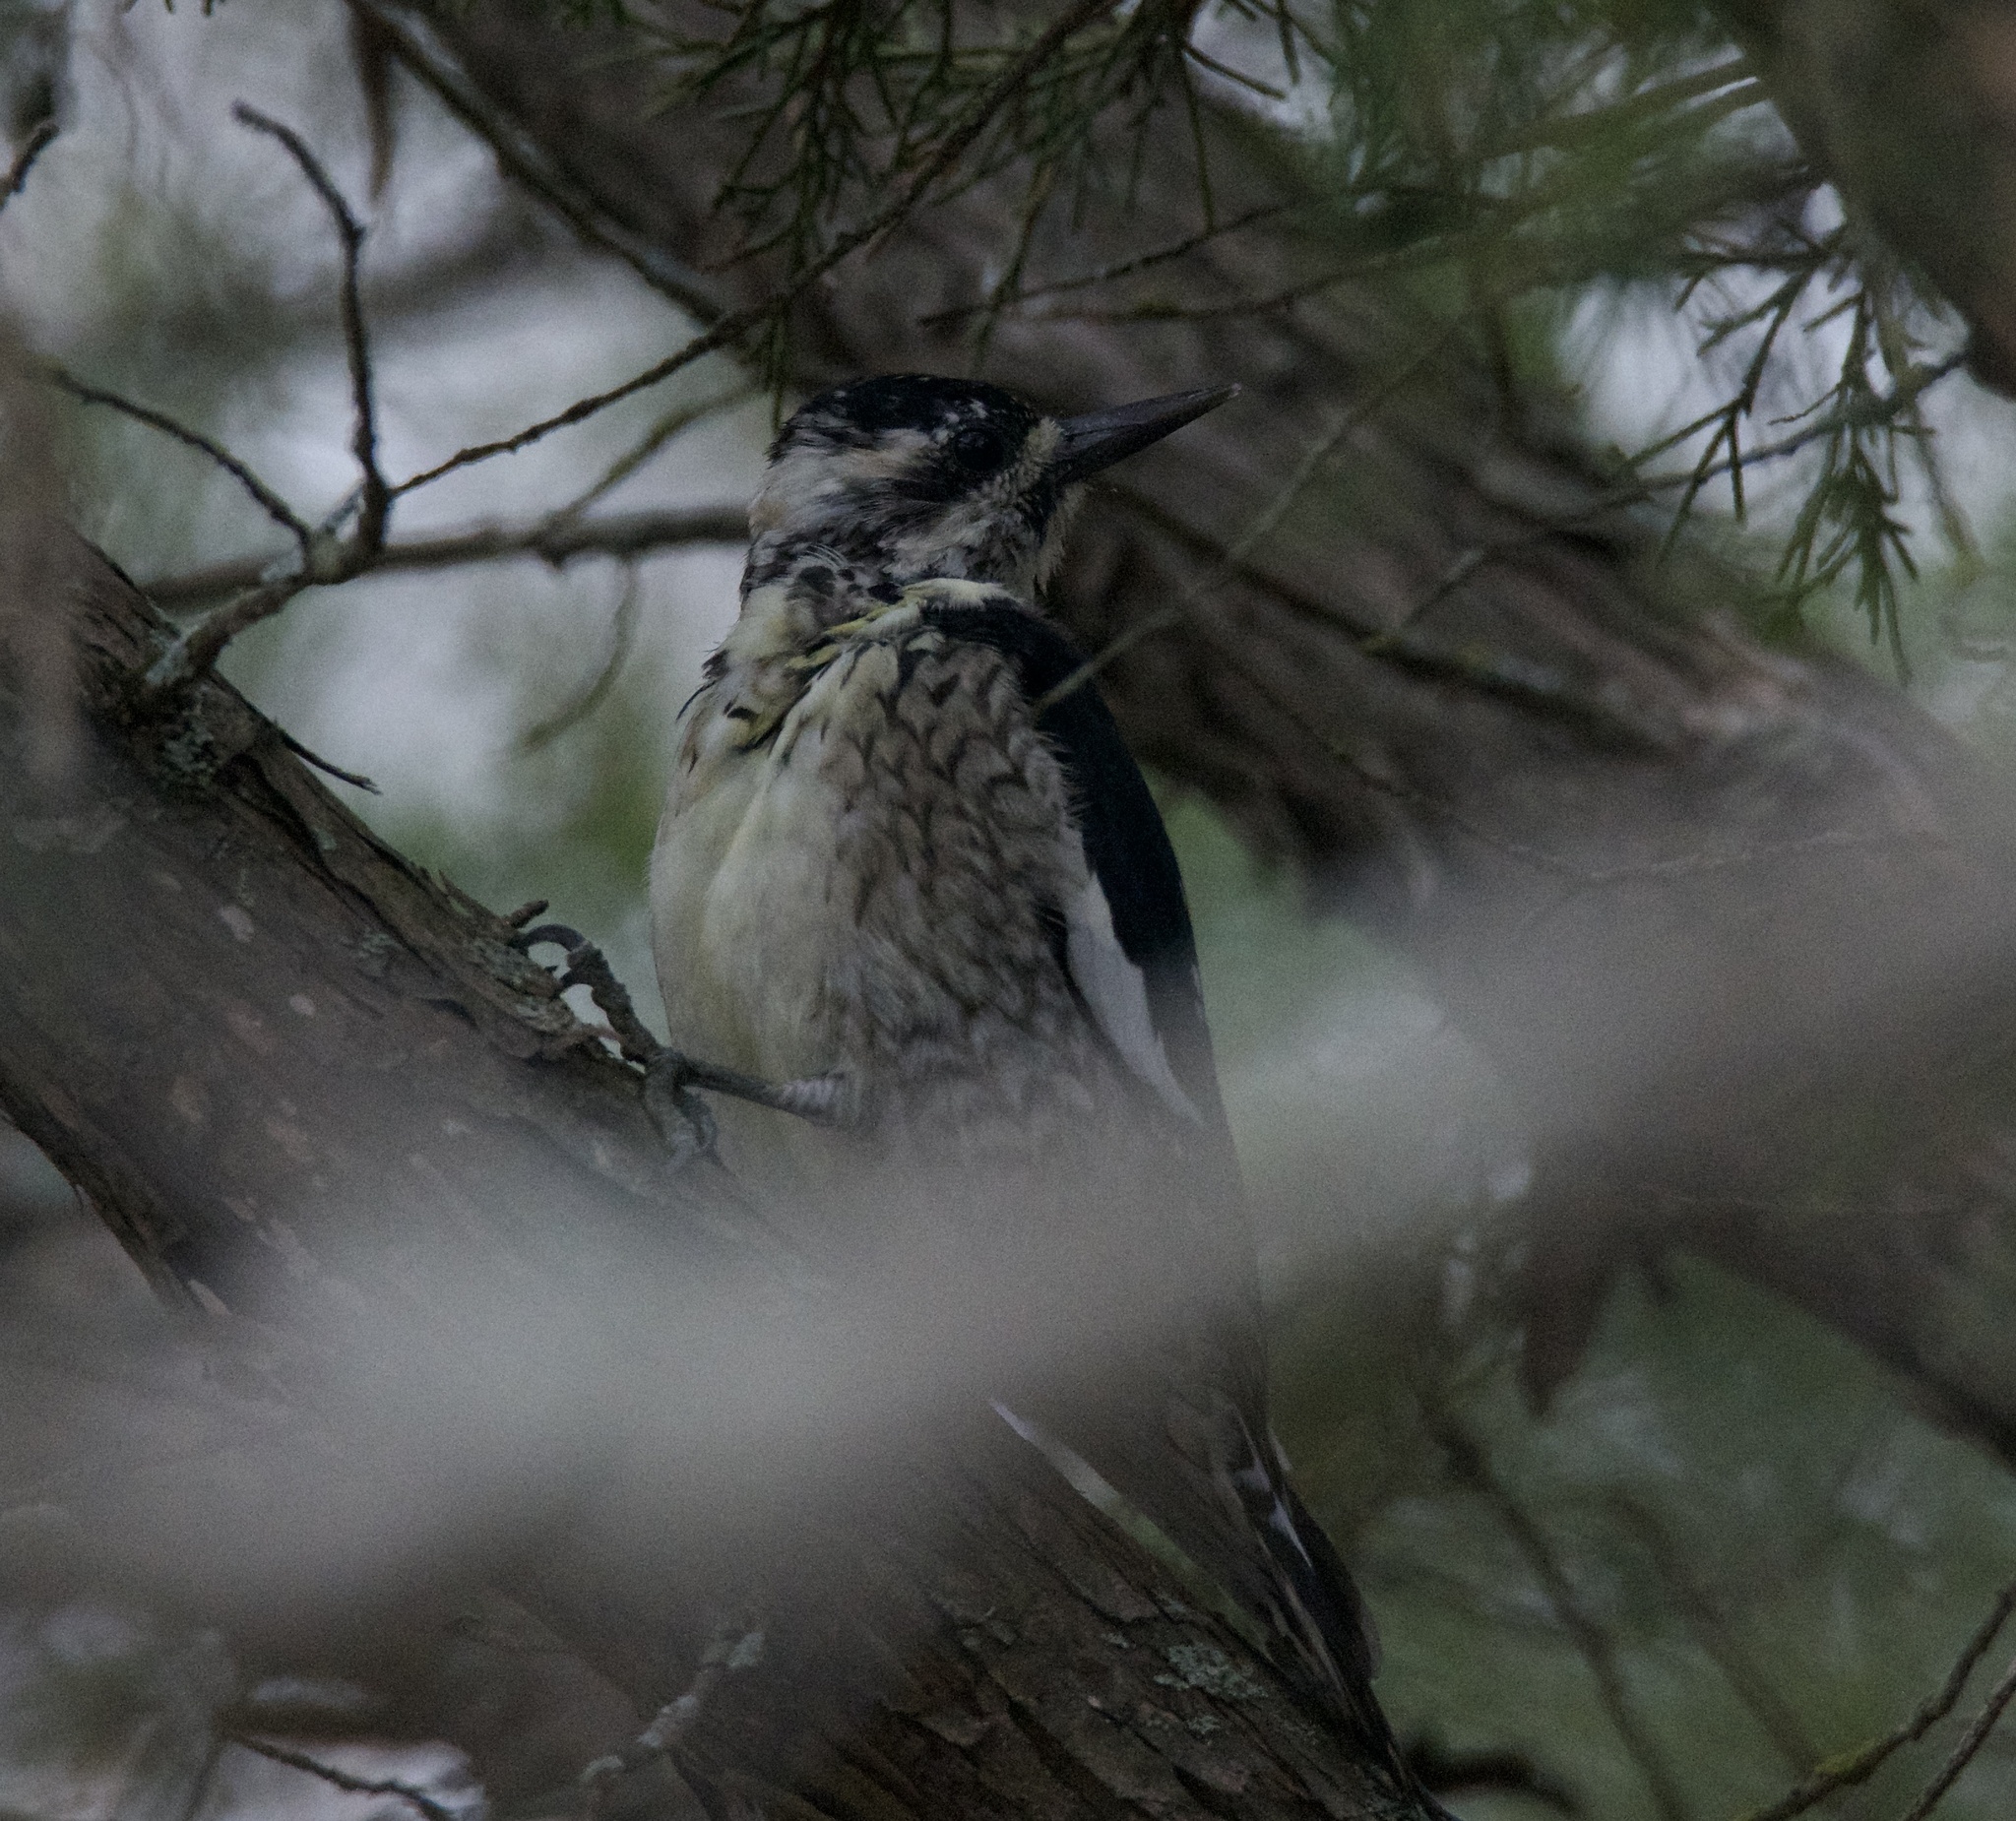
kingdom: Animalia
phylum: Chordata
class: Aves
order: Piciformes
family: Picidae
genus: Sphyrapicus
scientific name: Sphyrapicus varius
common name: Yellow-bellied sapsucker
